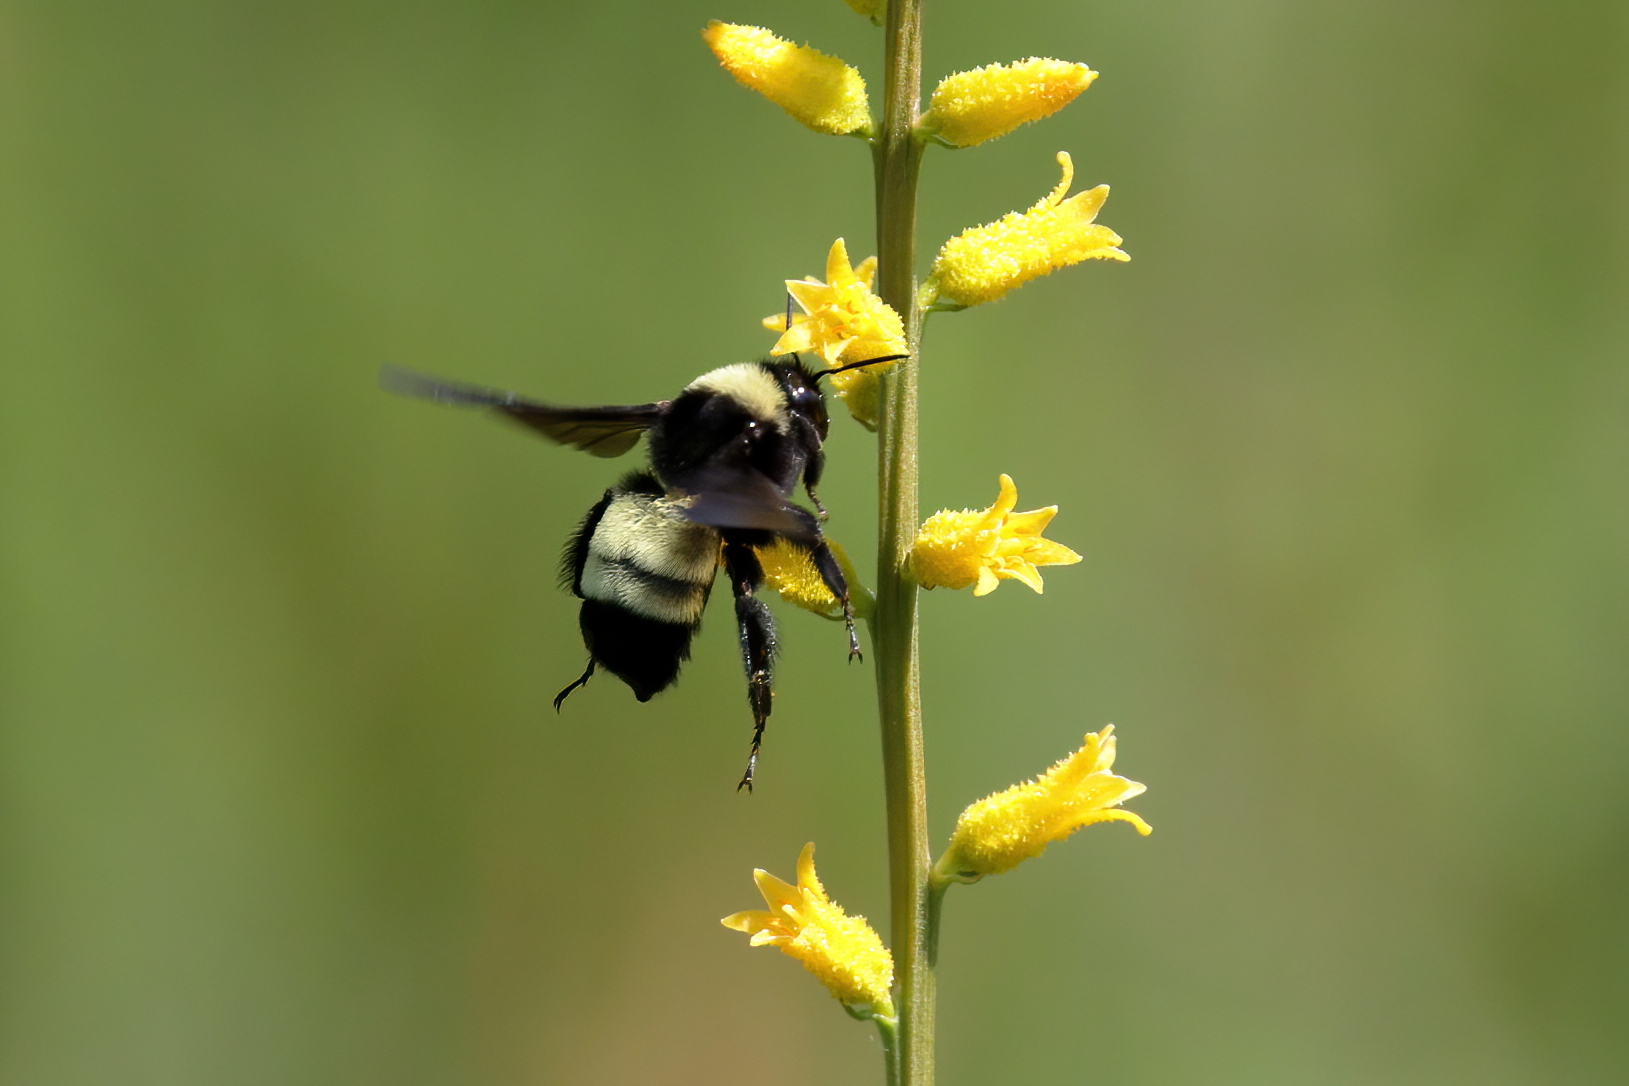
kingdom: Animalia
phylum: Arthropoda
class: Insecta
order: Hymenoptera
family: Apidae
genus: Bombus
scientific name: Bombus pensylvanicus
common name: Bumble bee
